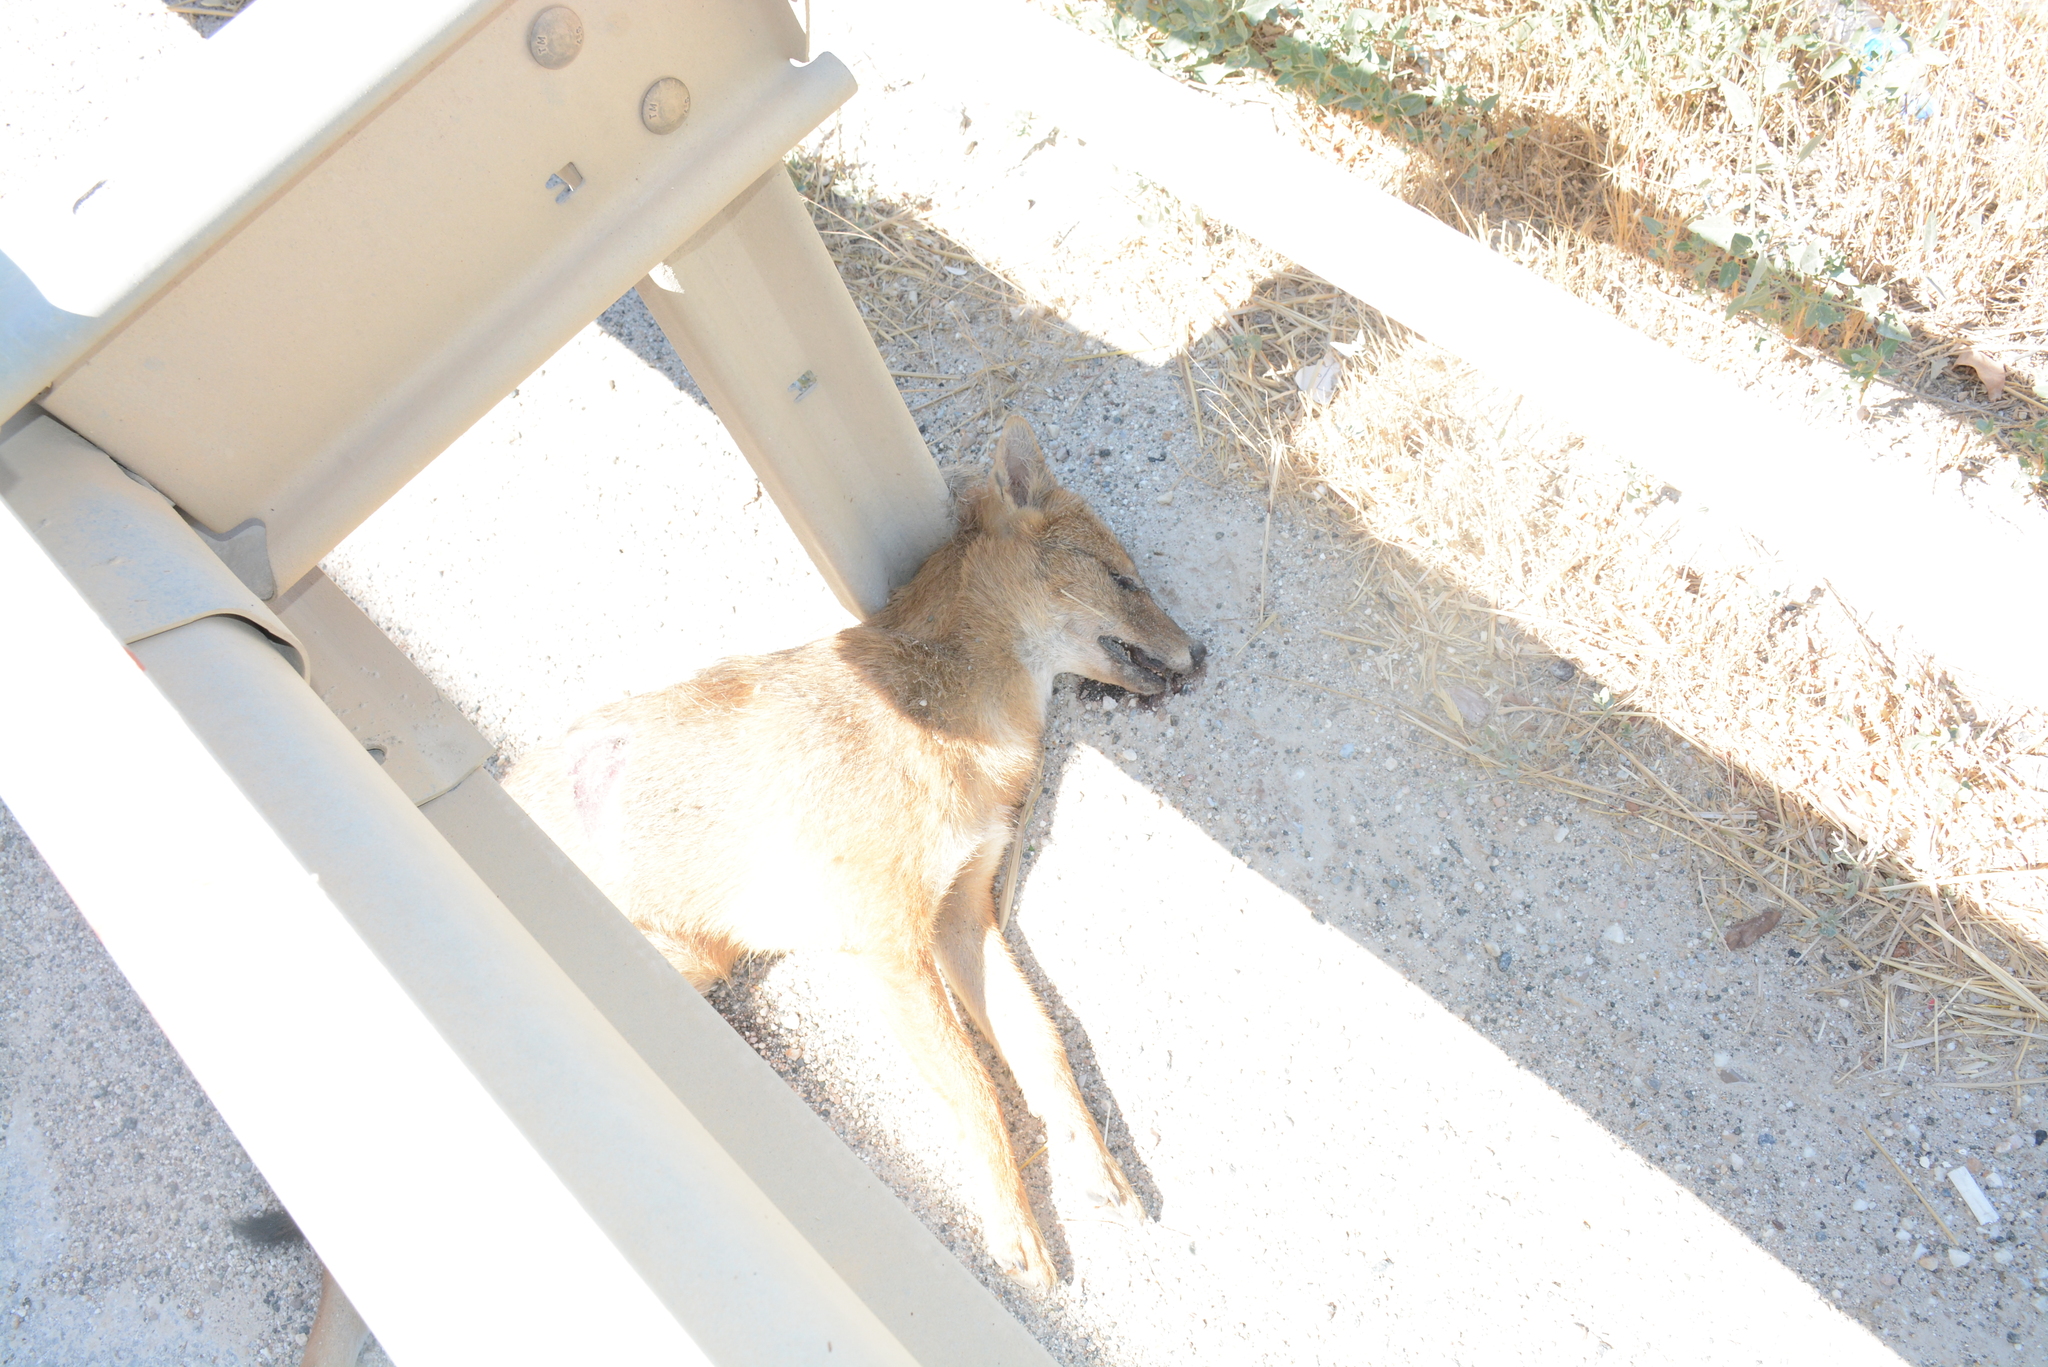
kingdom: Animalia
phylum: Chordata
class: Mammalia
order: Carnivora
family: Canidae
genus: Canis
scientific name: Canis aureus
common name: Golden jackal
